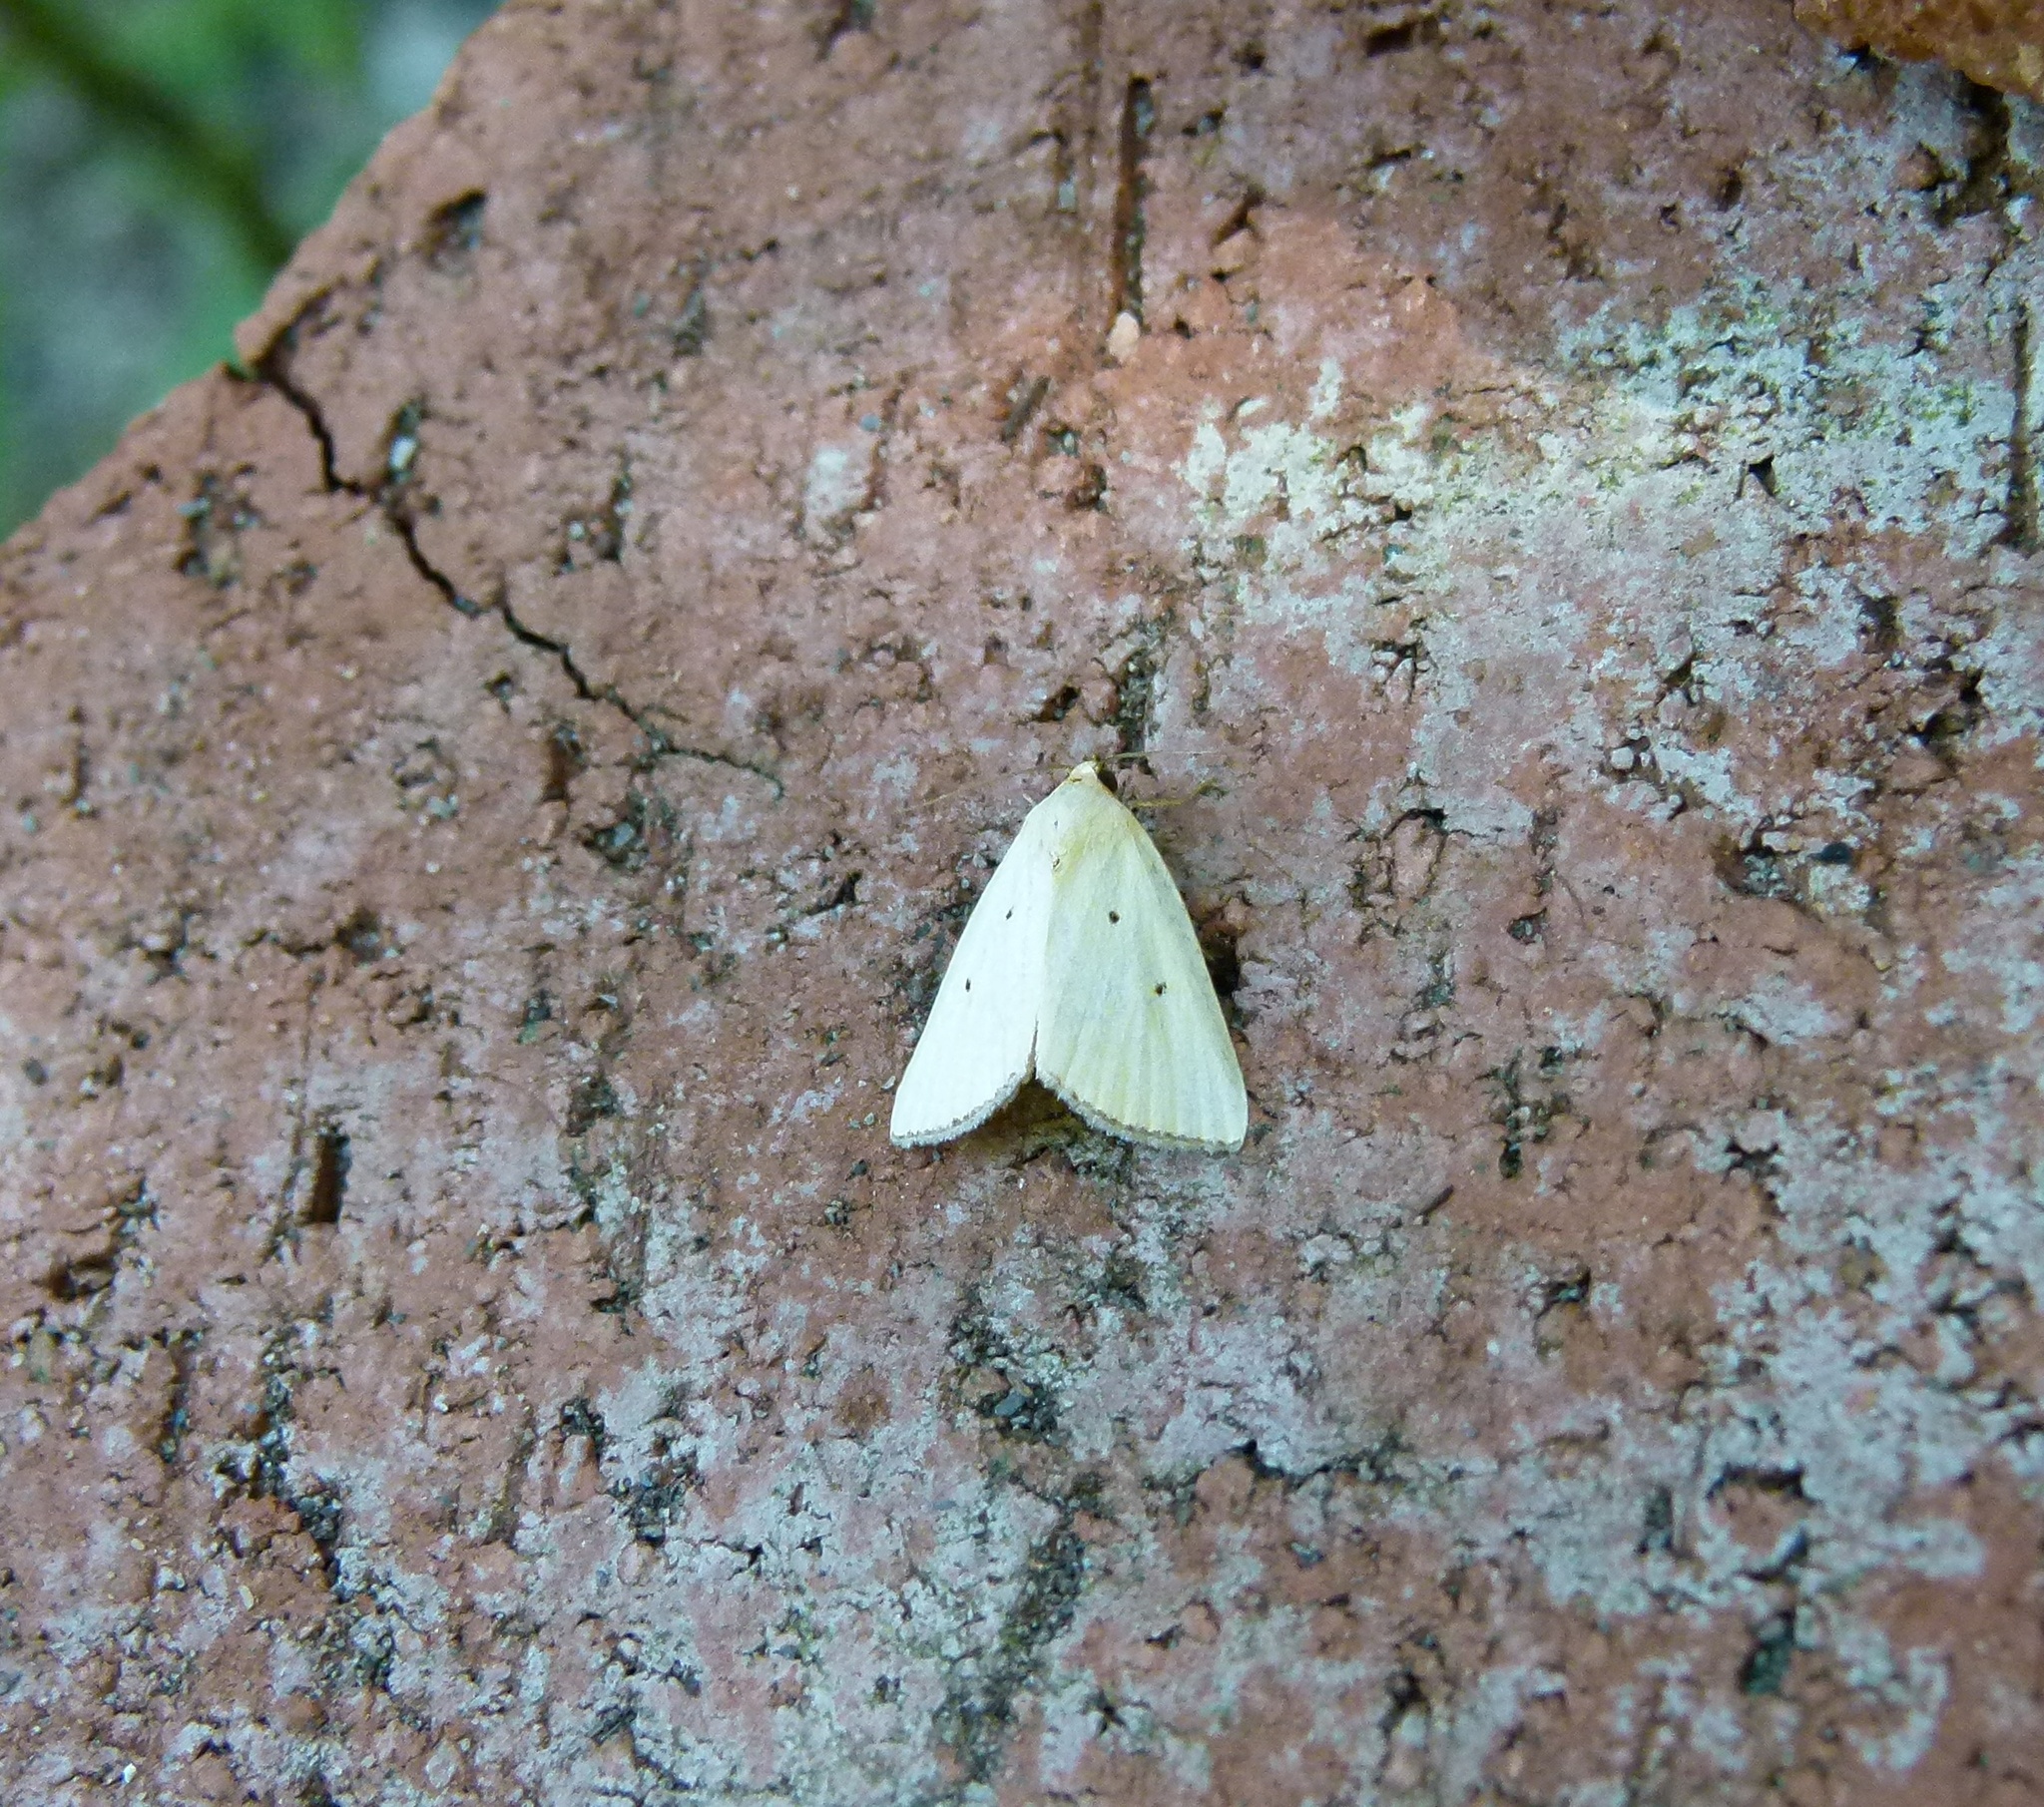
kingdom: Animalia
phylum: Arthropoda
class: Insecta
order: Lepidoptera
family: Noctuidae
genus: Marimatha
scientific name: Marimatha nigrofimbria
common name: Black-bordered lemon moth
